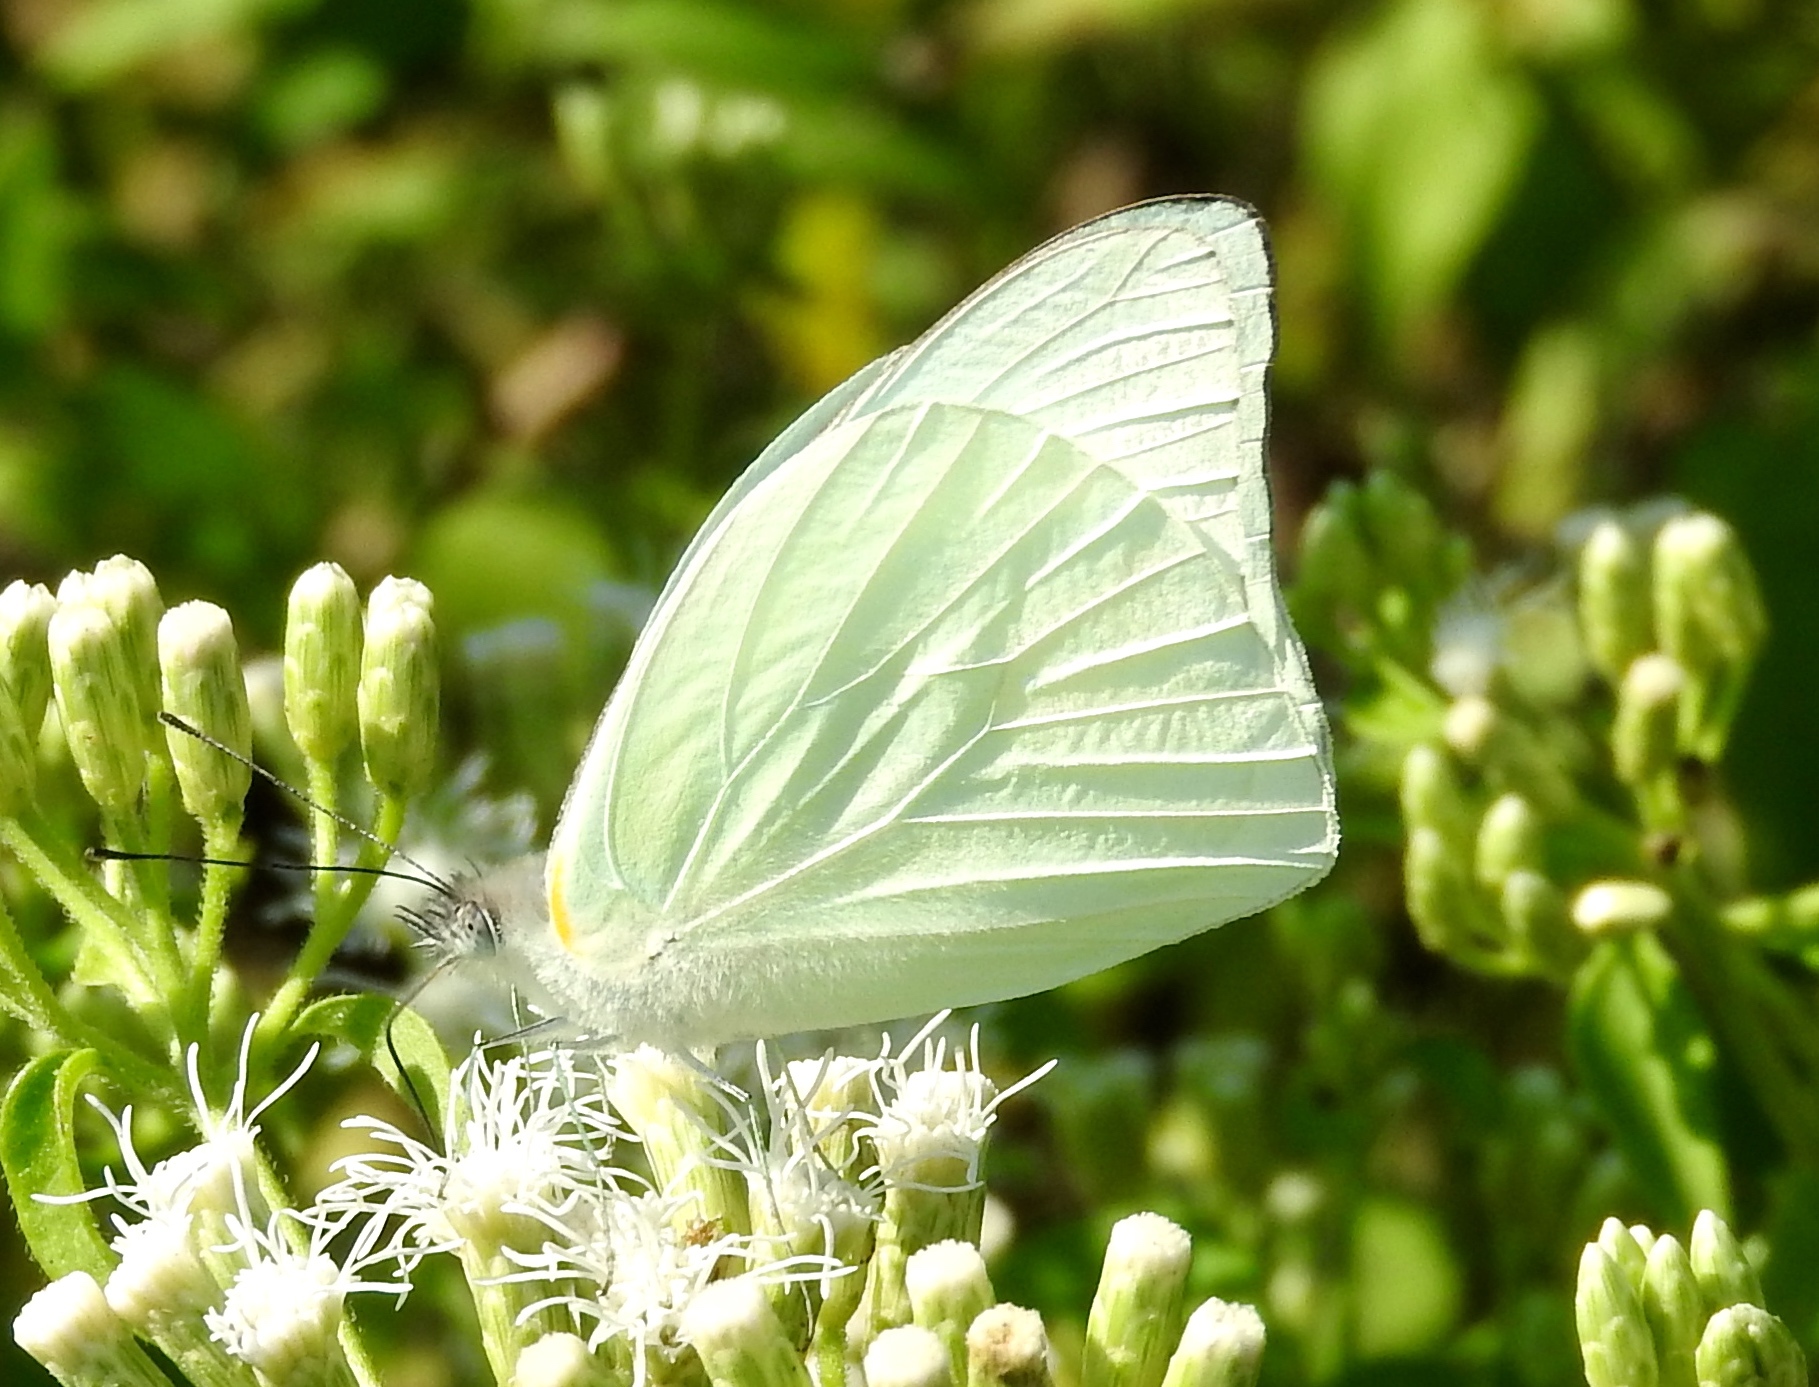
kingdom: Animalia
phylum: Arthropoda
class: Insecta
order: Lepidoptera
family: Pieridae
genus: Glutophrissa
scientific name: Glutophrissa drusilla
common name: Florida white
